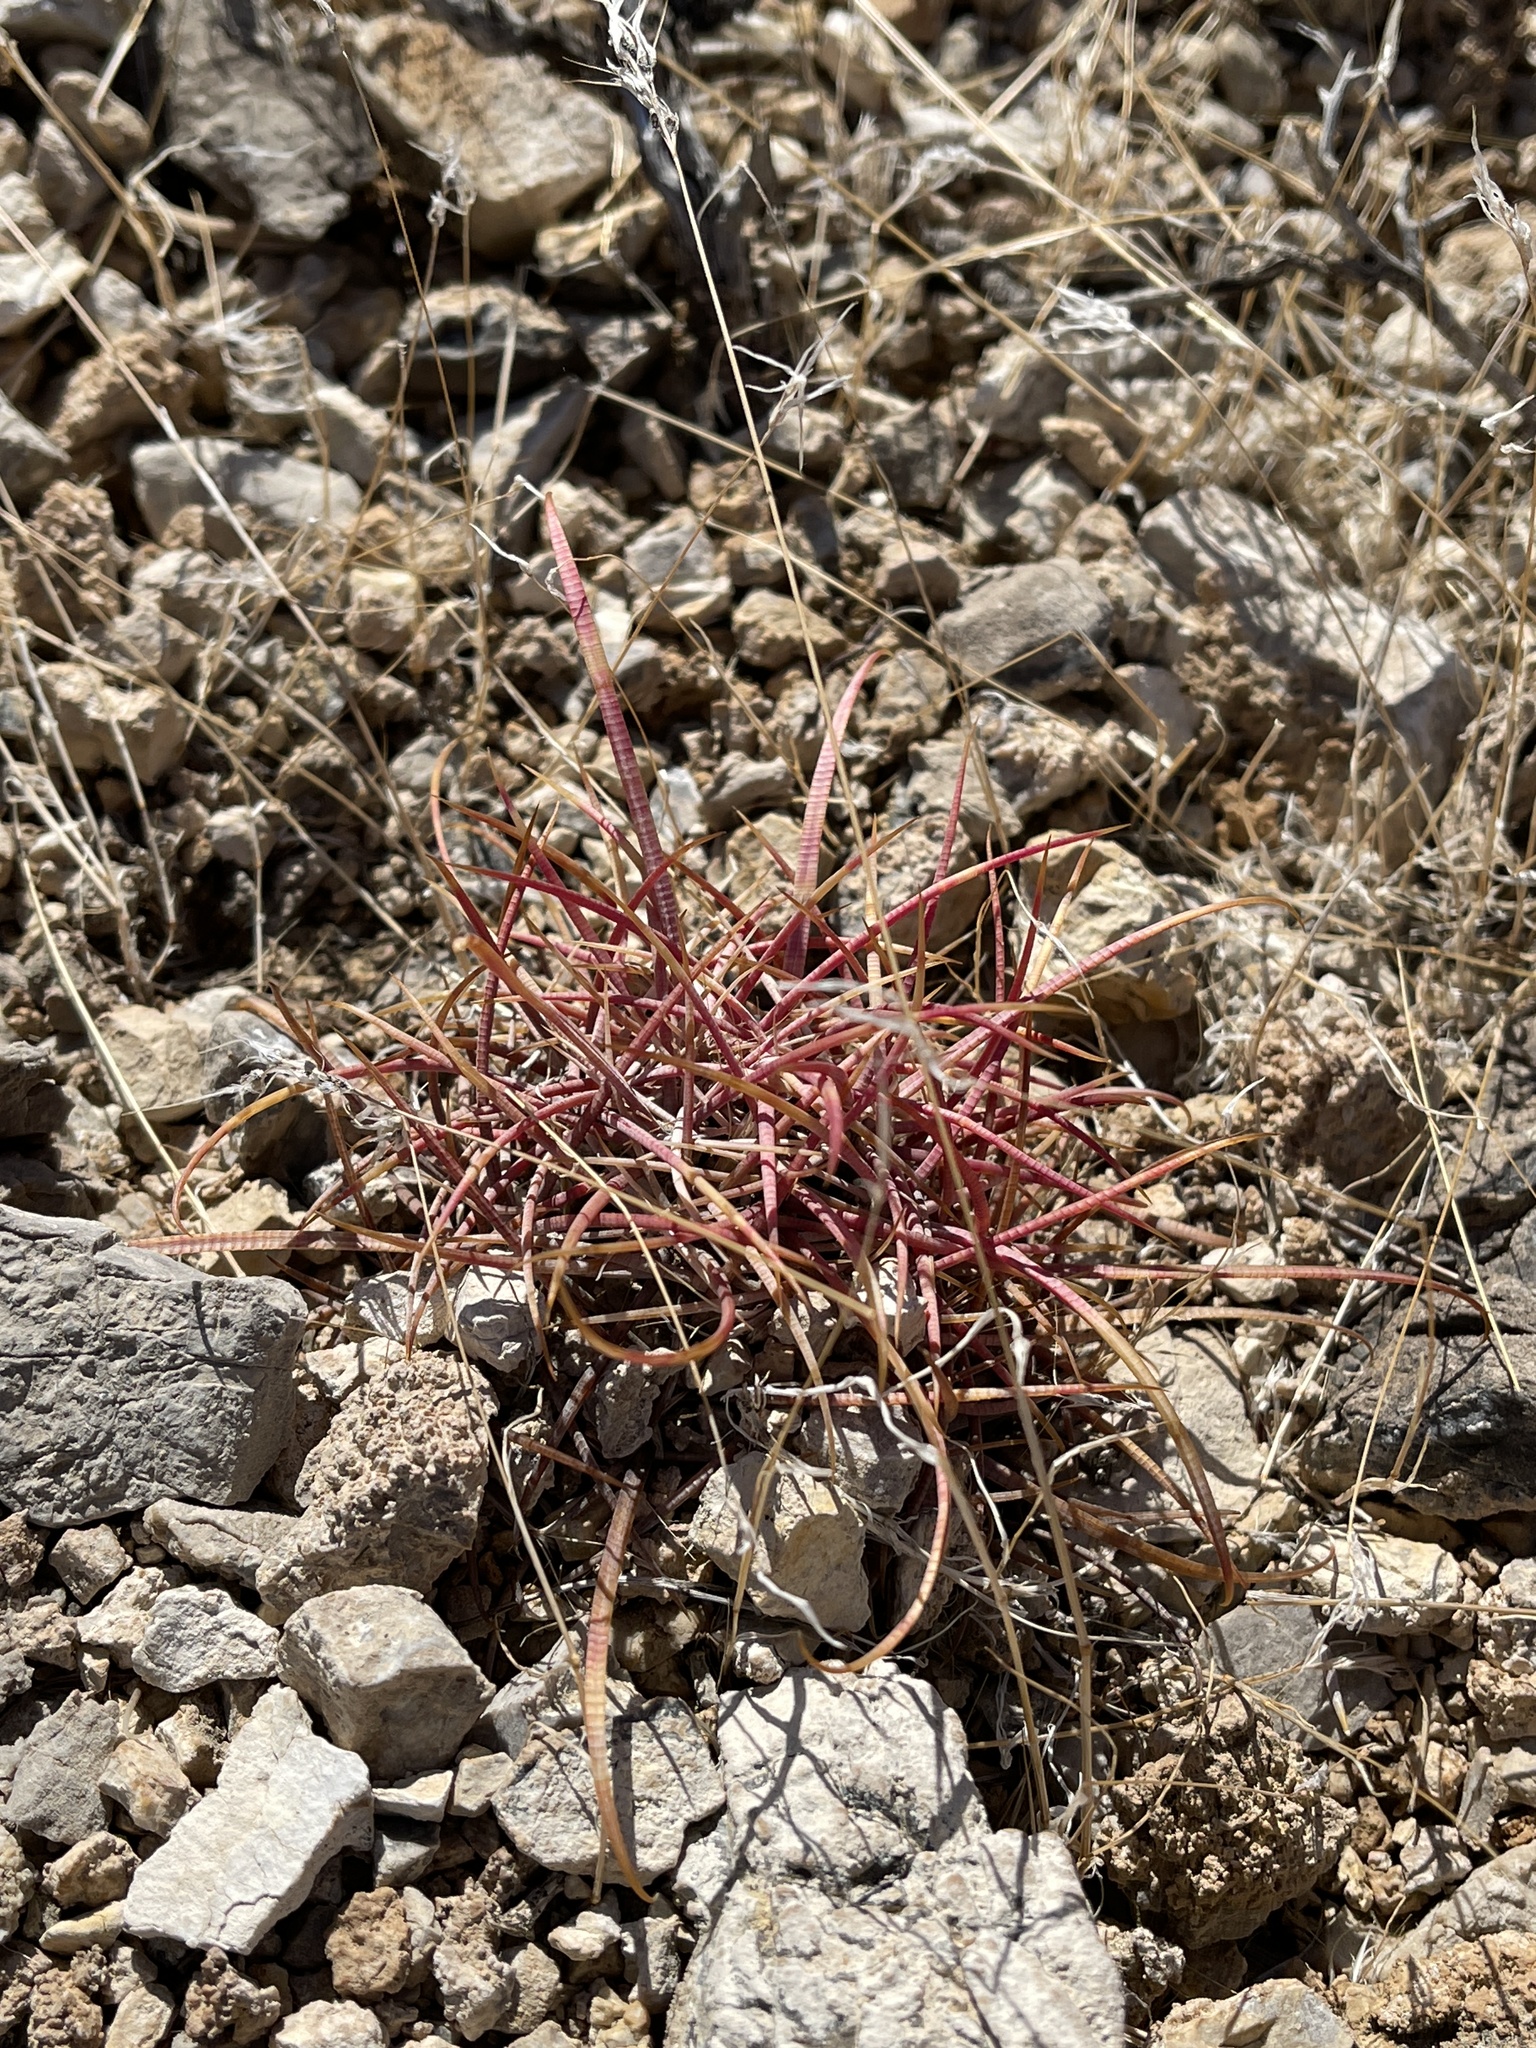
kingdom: Plantae
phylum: Tracheophyta
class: Magnoliopsida
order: Caryophyllales
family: Cactaceae
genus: Ferocactus
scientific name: Ferocactus cylindraceus
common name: California barrel cactus
